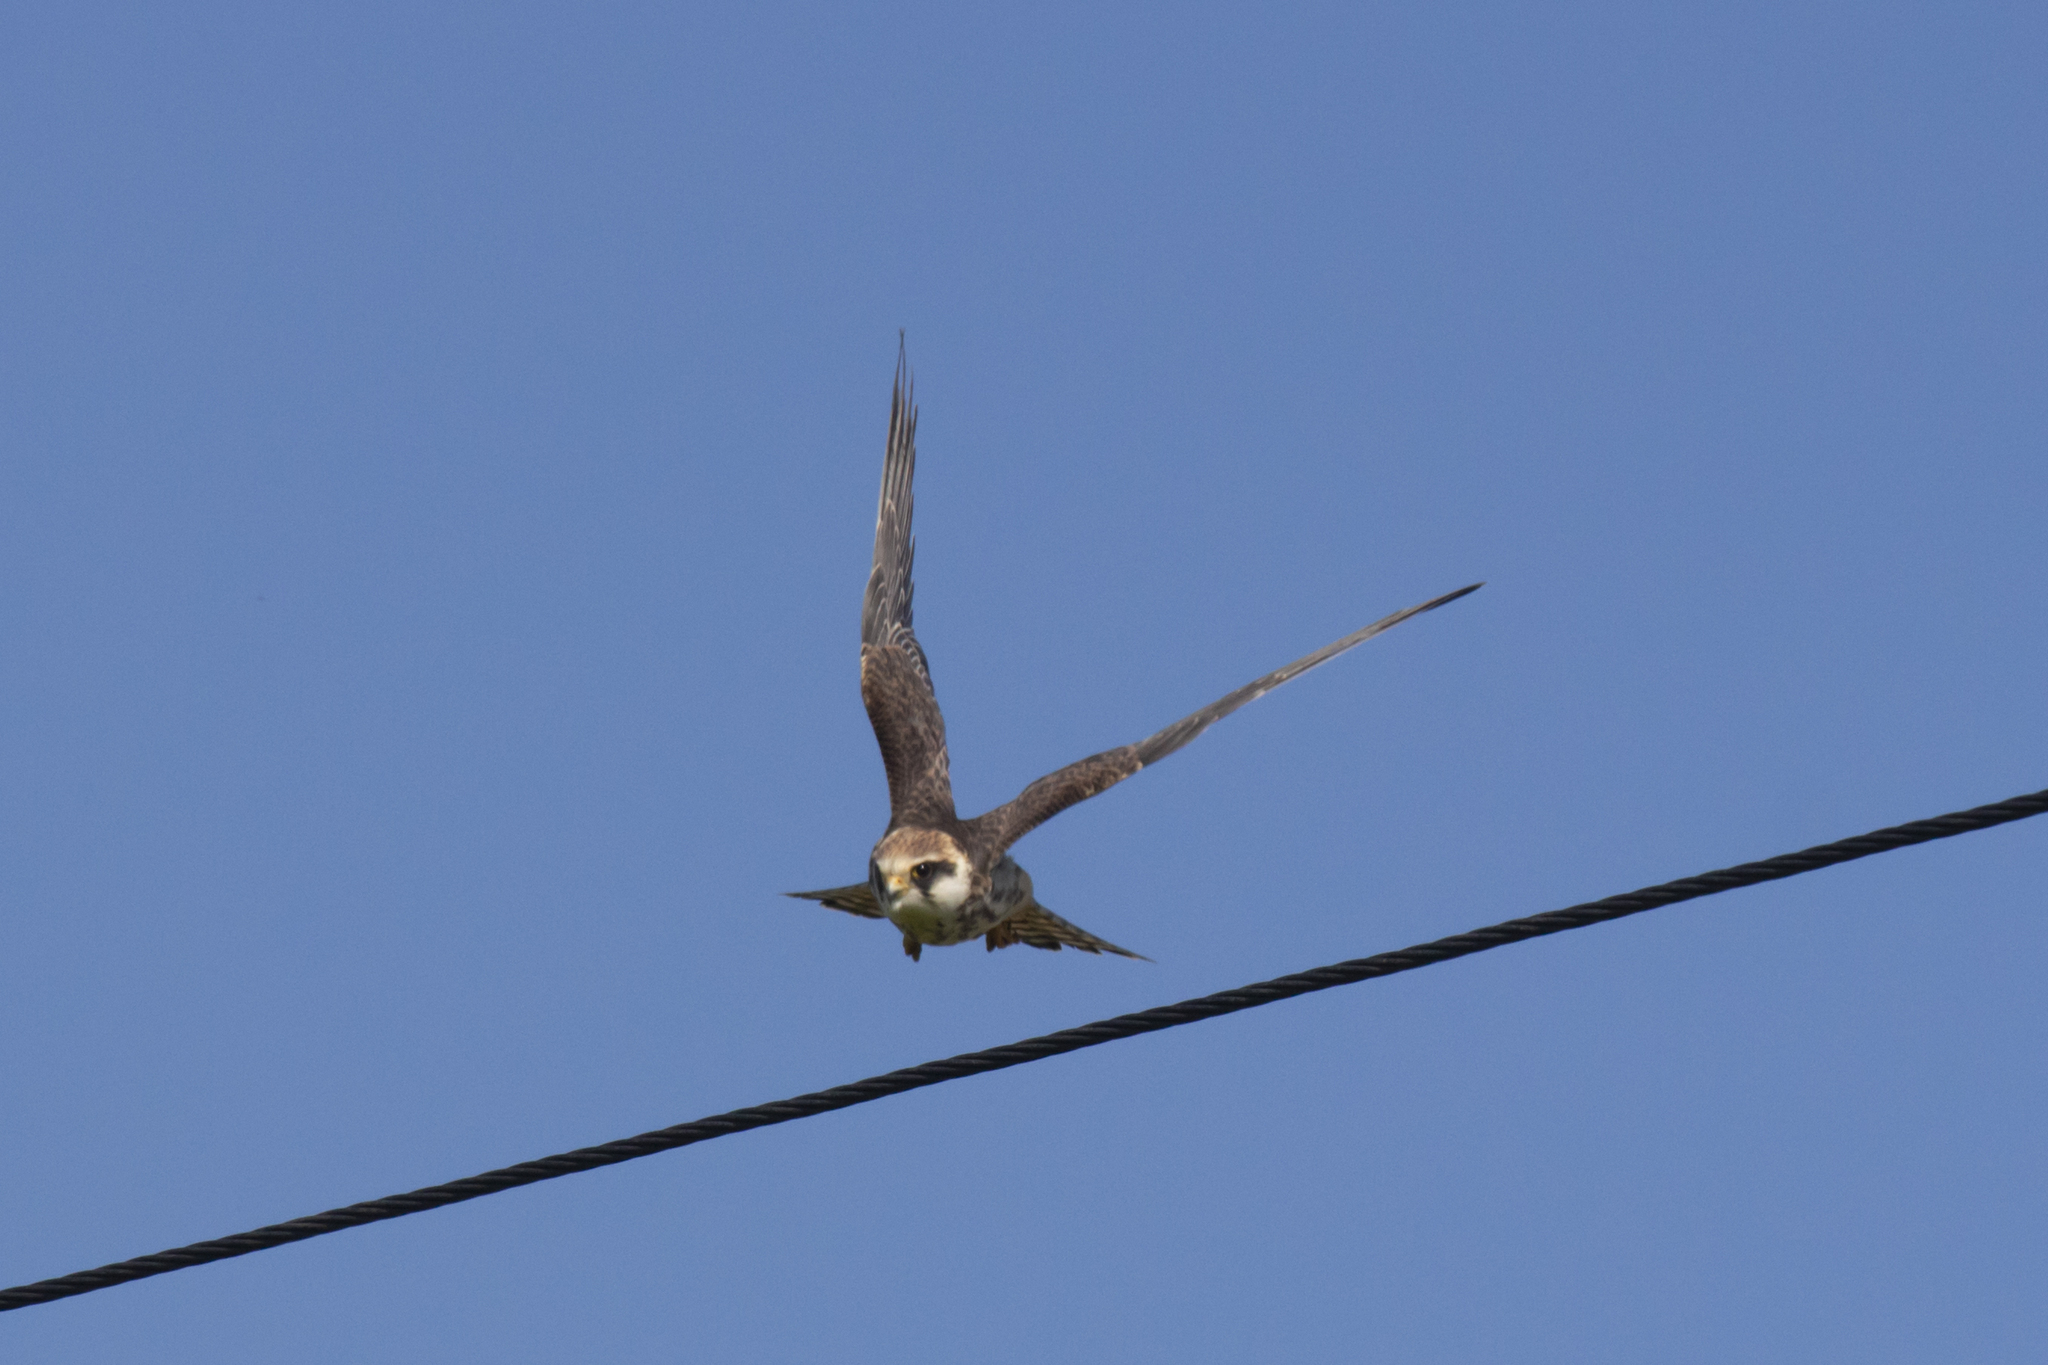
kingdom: Animalia
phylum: Chordata
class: Aves
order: Falconiformes
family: Falconidae
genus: Falco
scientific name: Falco vespertinus
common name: Red-footed falcon
